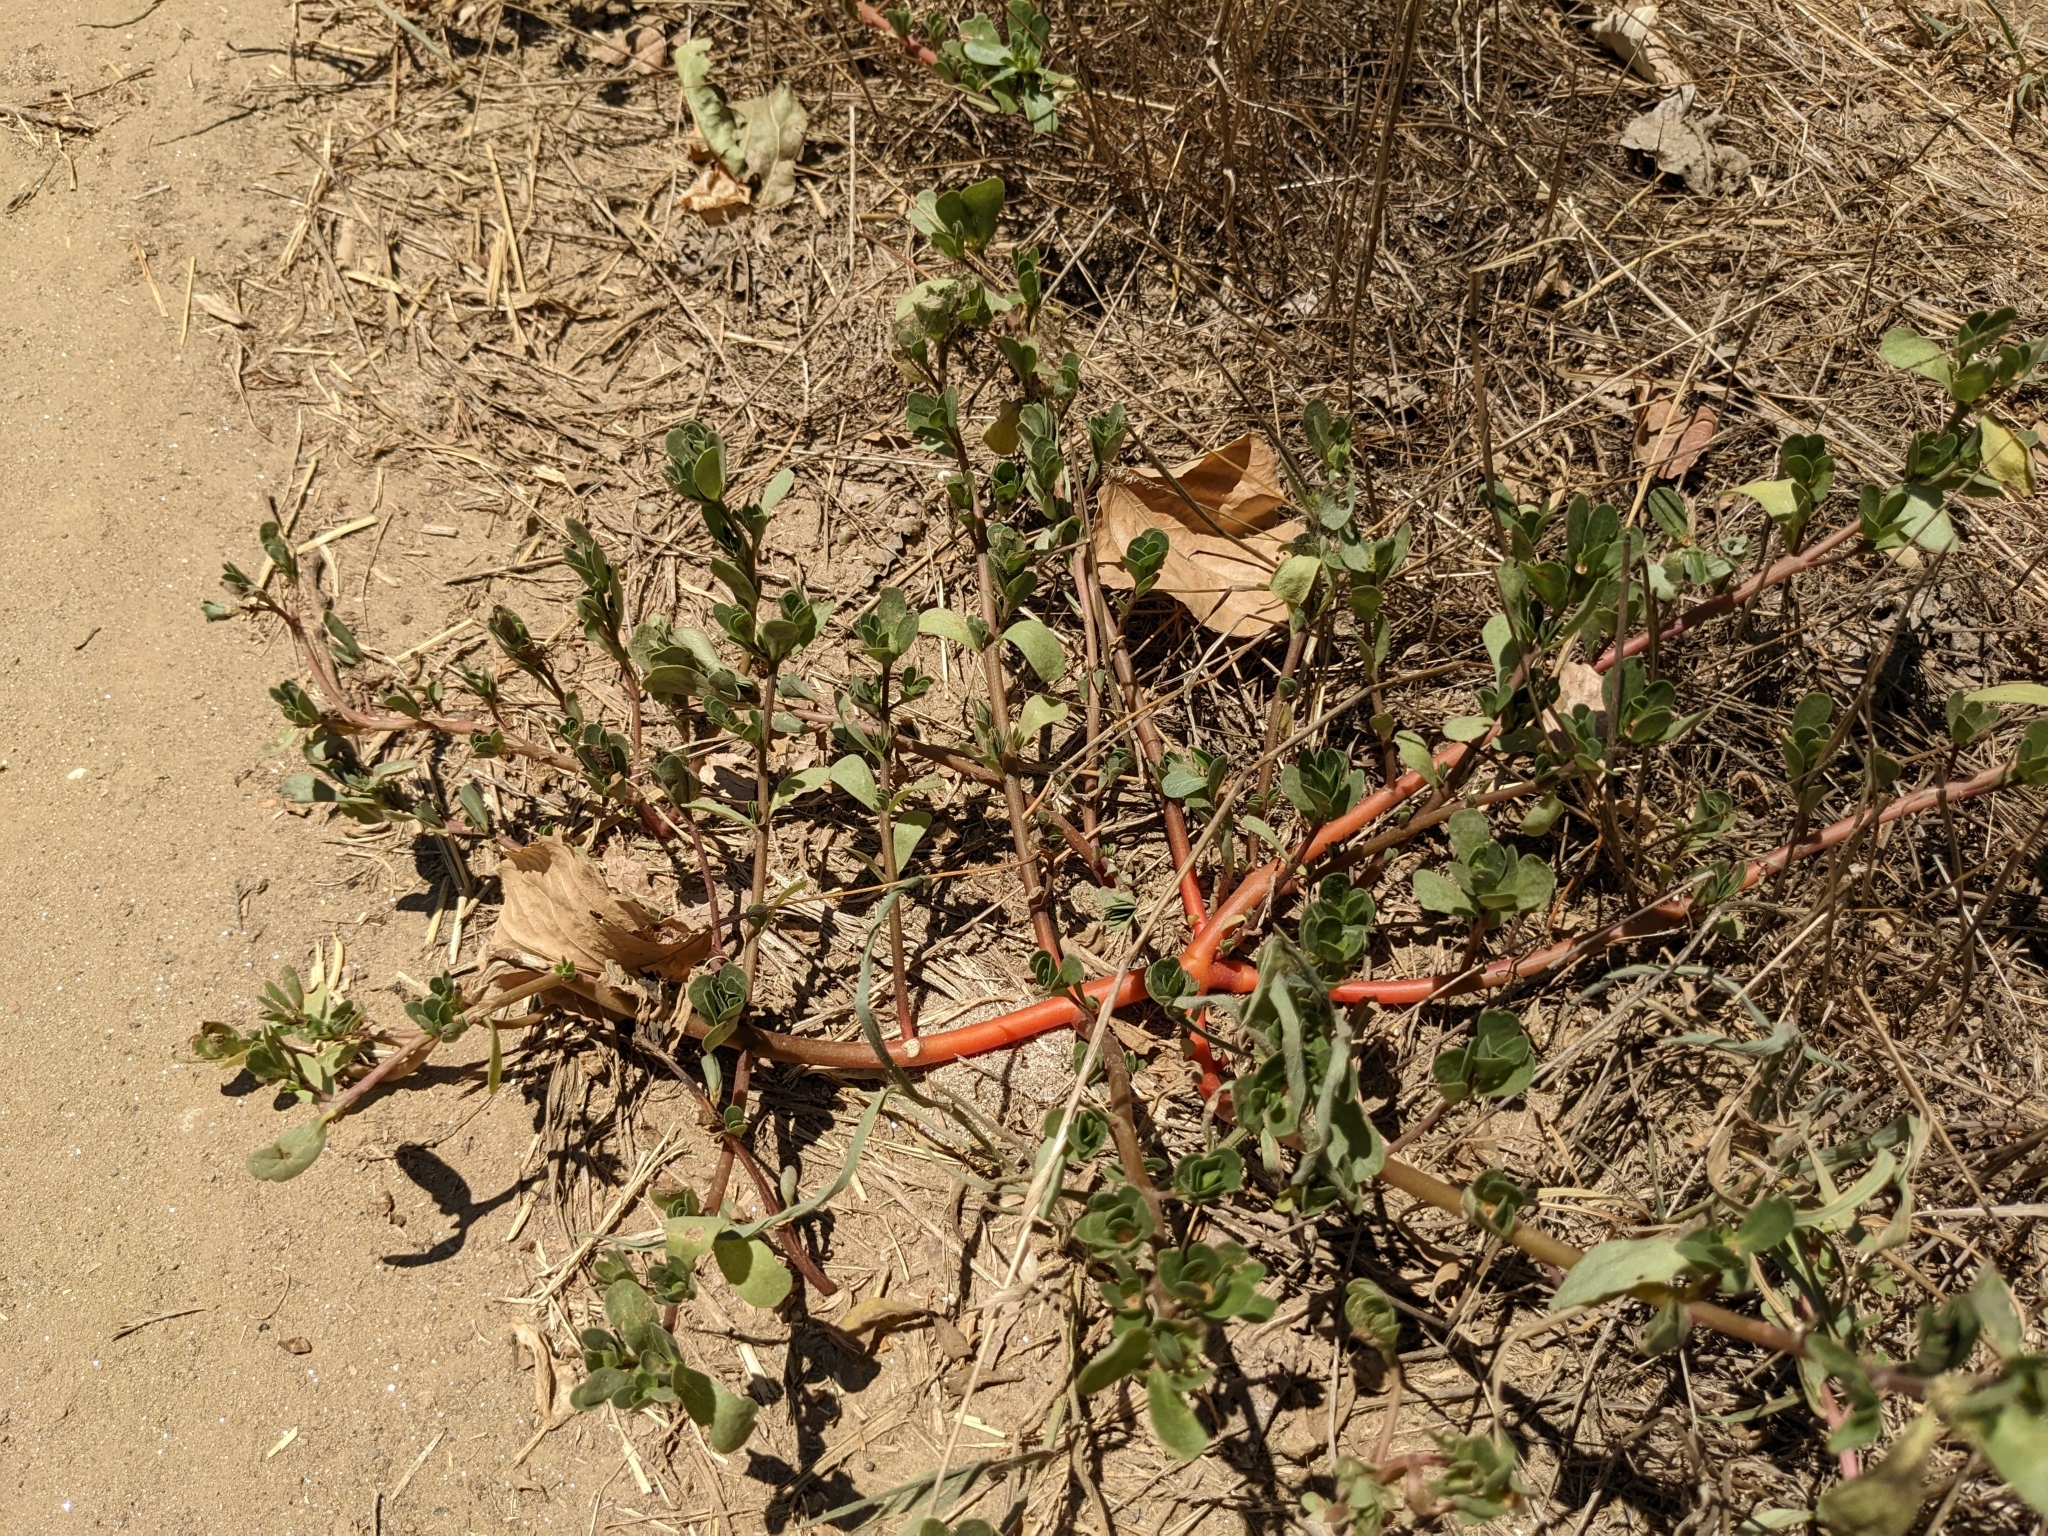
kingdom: Plantae
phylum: Tracheophyta
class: Magnoliopsida
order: Caryophyllales
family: Portulacaceae
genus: Portulaca
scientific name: Portulaca oleracea
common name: Common purslane
